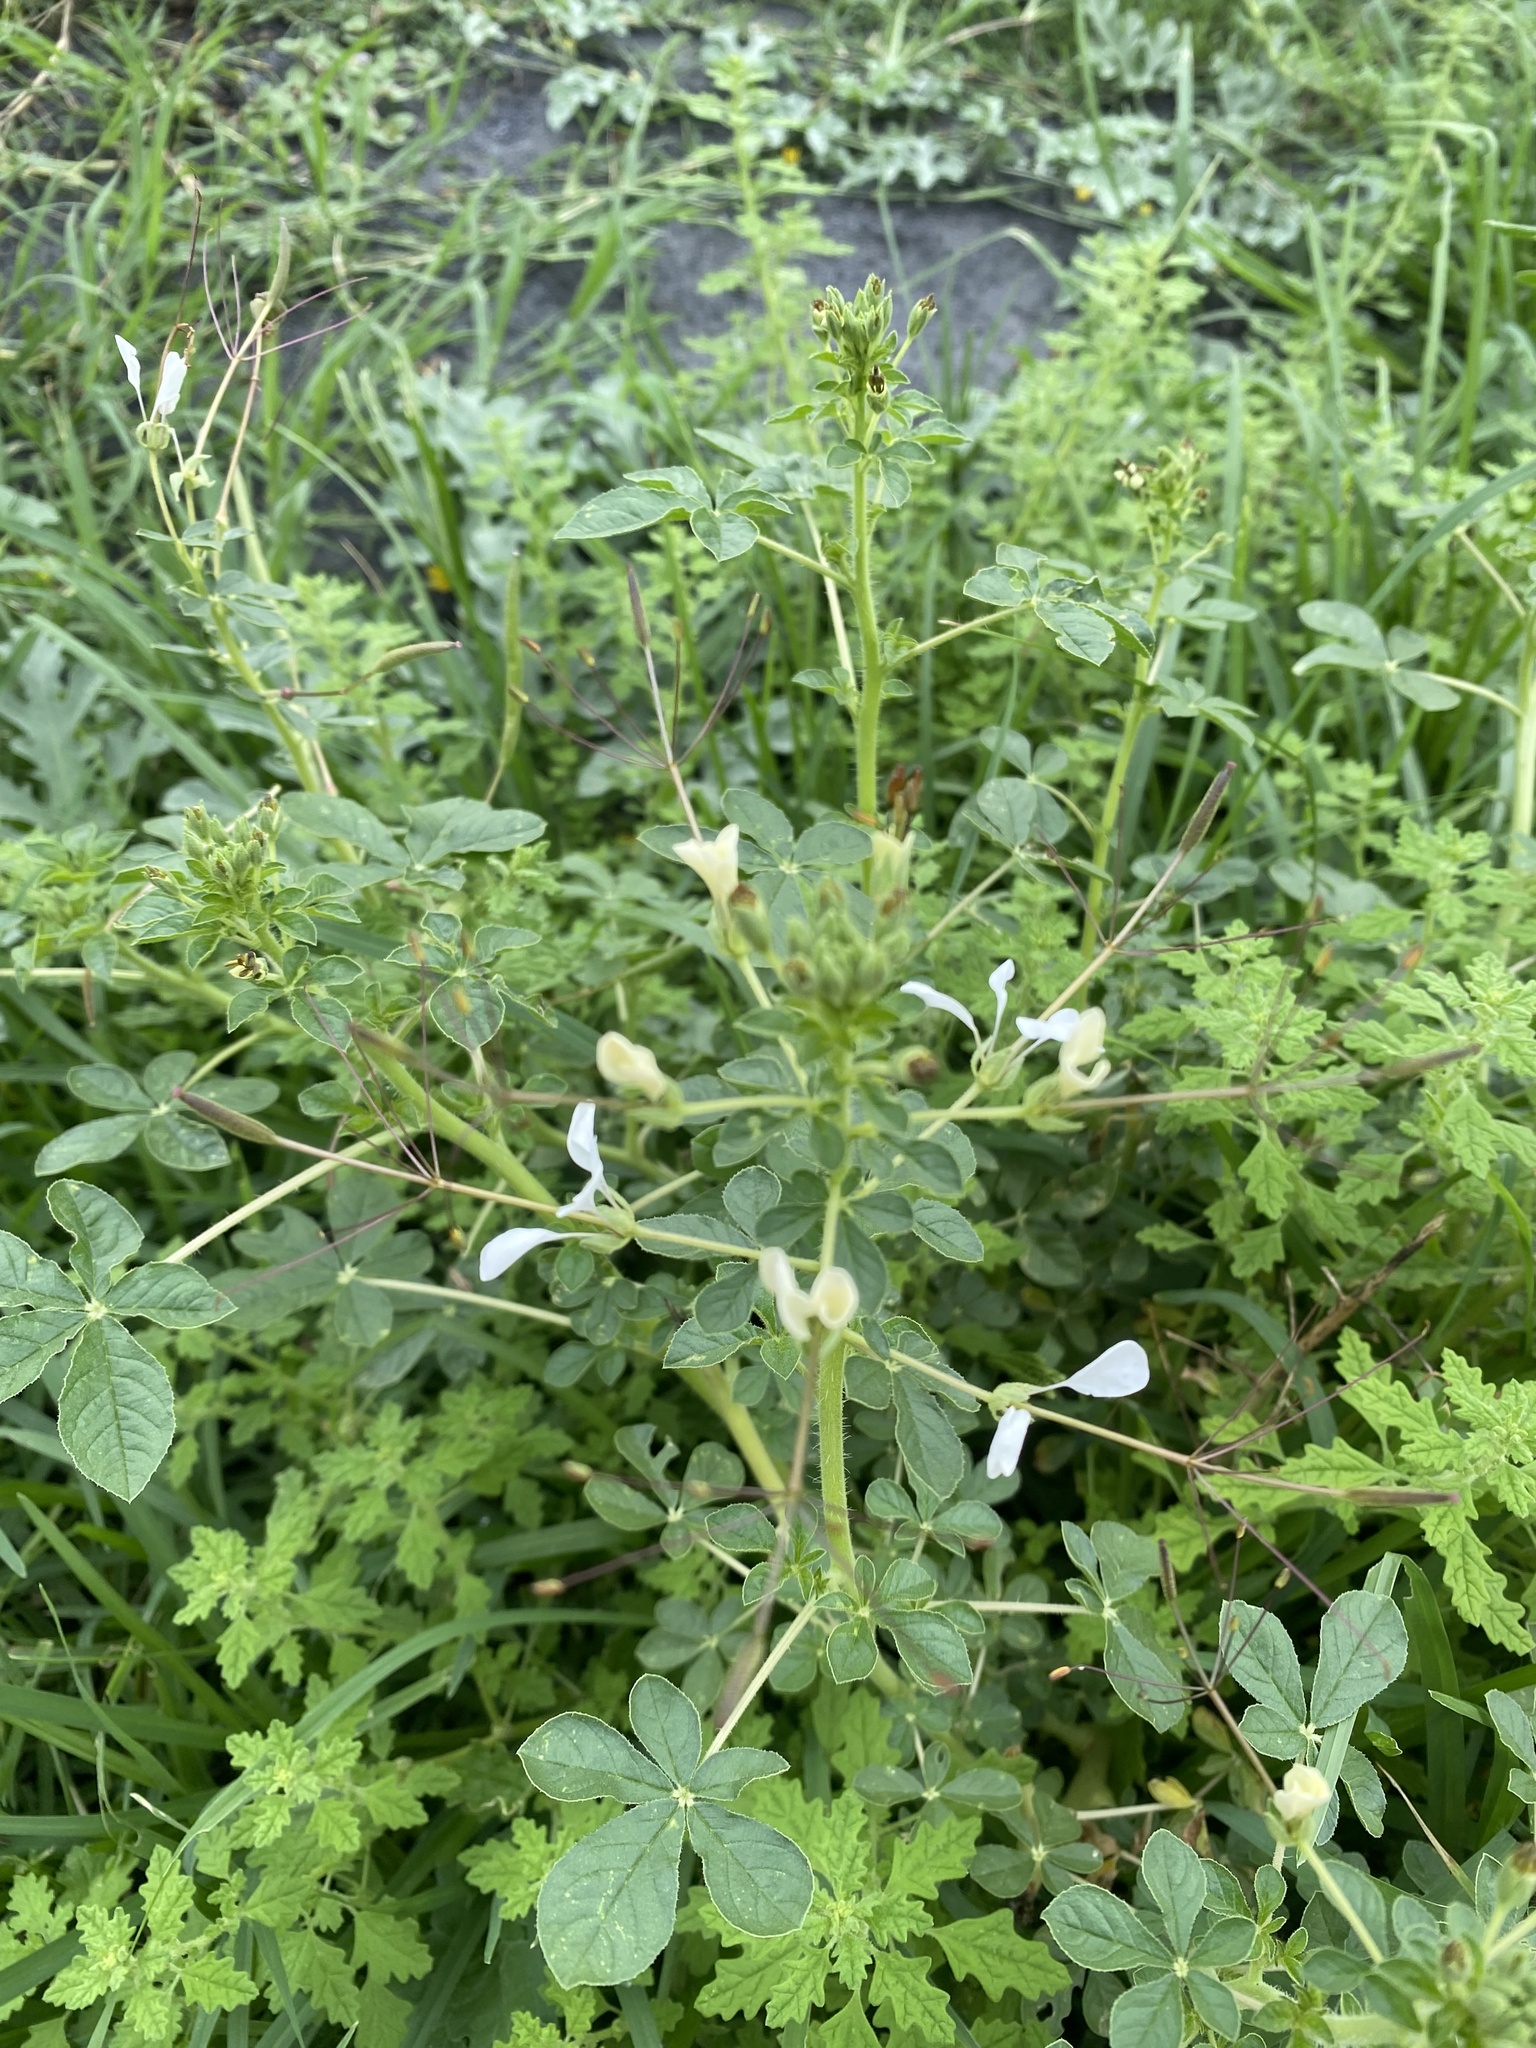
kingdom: Plantae
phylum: Tracheophyta
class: Magnoliopsida
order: Brassicales
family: Cleomaceae
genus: Gynandropsis
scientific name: Gynandropsis gynandra
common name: Spiderwisp
